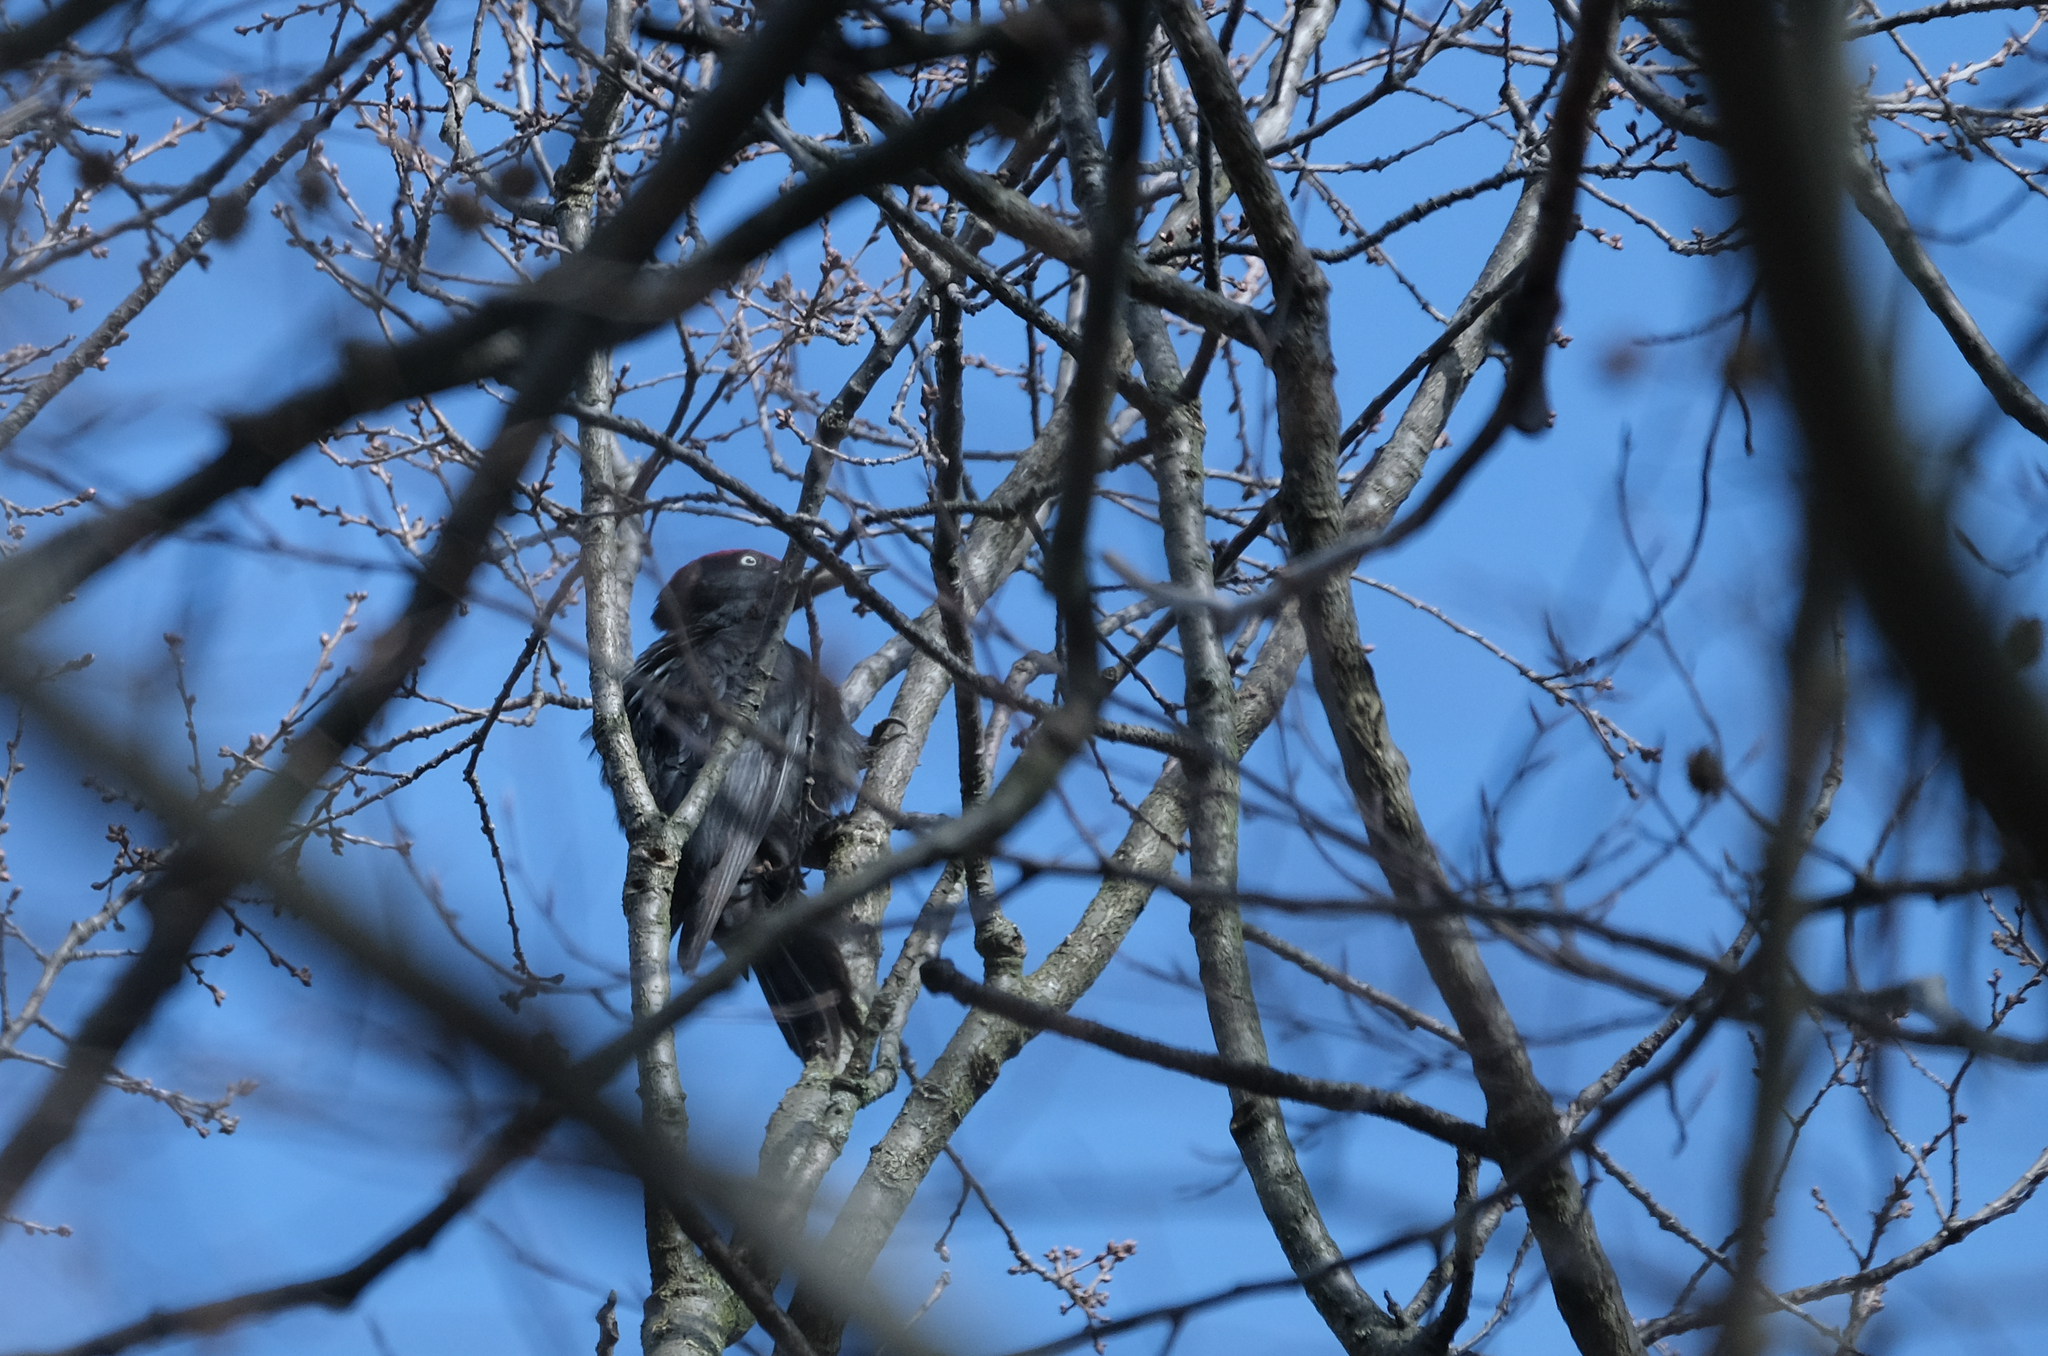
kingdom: Animalia
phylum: Chordata
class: Aves
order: Piciformes
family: Picidae
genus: Dryocopus
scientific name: Dryocopus martius
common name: Black woodpecker
